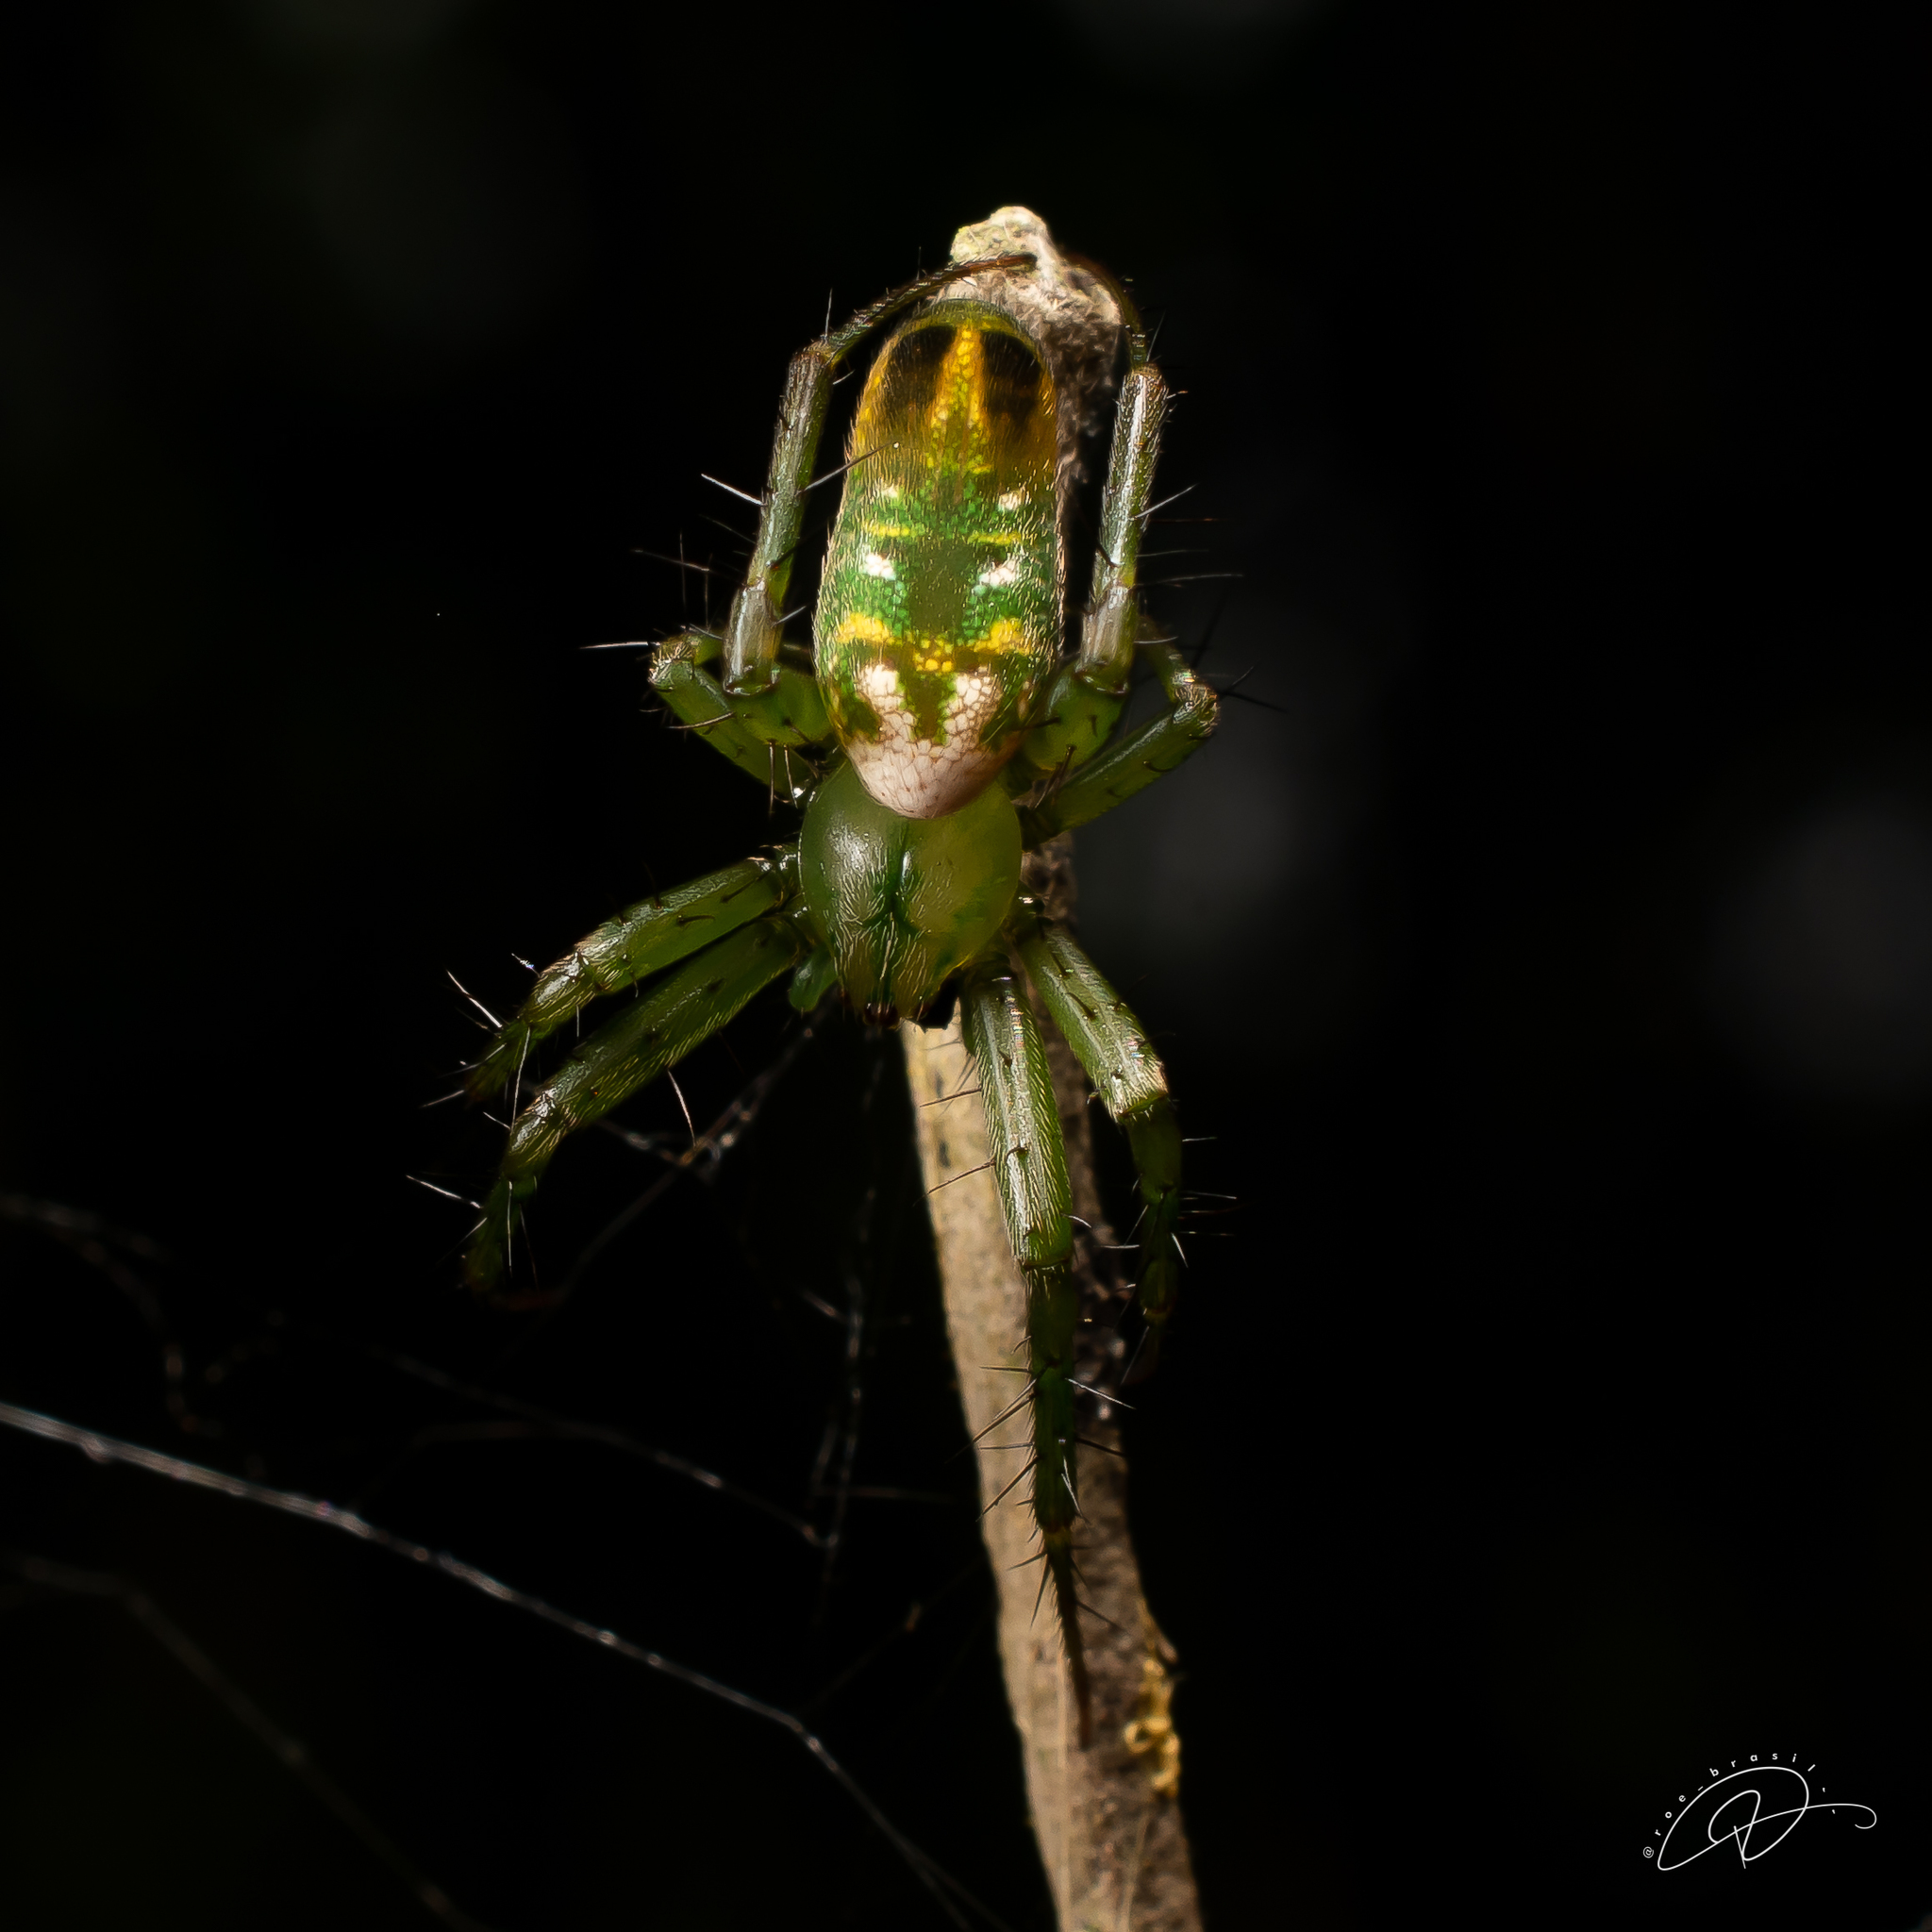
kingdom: Animalia
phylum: Arthropoda
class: Arachnida
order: Araneae
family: Araneidae
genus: Mangora
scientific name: Mangora strenua
